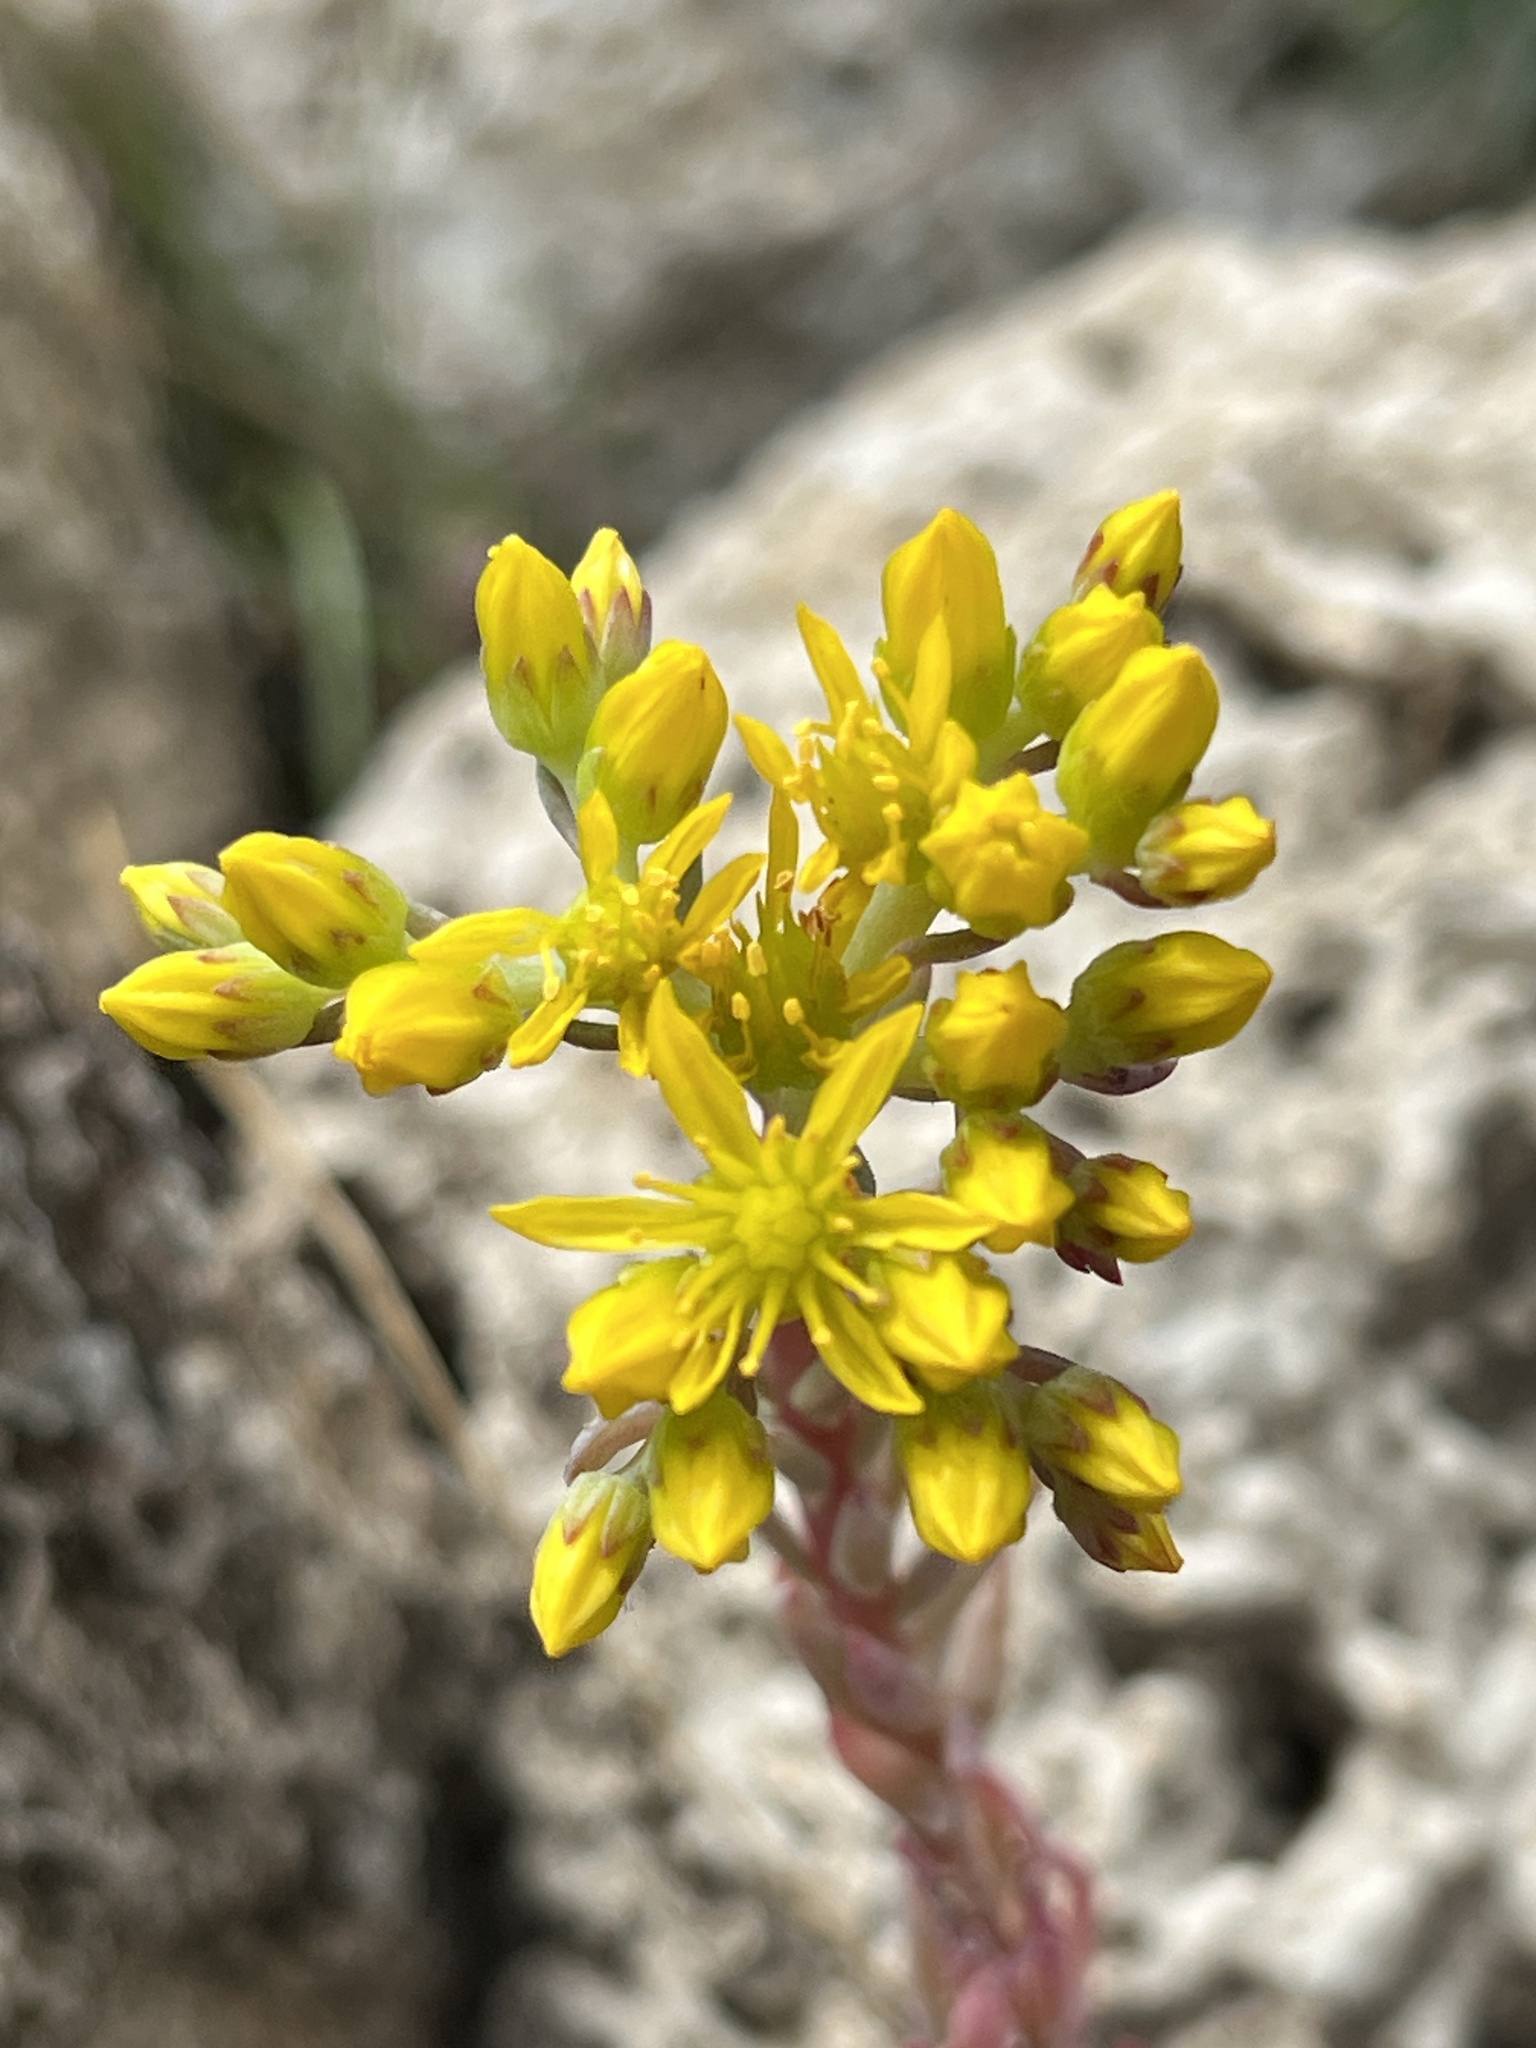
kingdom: Plantae
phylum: Tracheophyta
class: Magnoliopsida
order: Saxifragales
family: Crassulaceae
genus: Petrosedum
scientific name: Petrosedum rupestre
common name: Jenny's stonecrop
